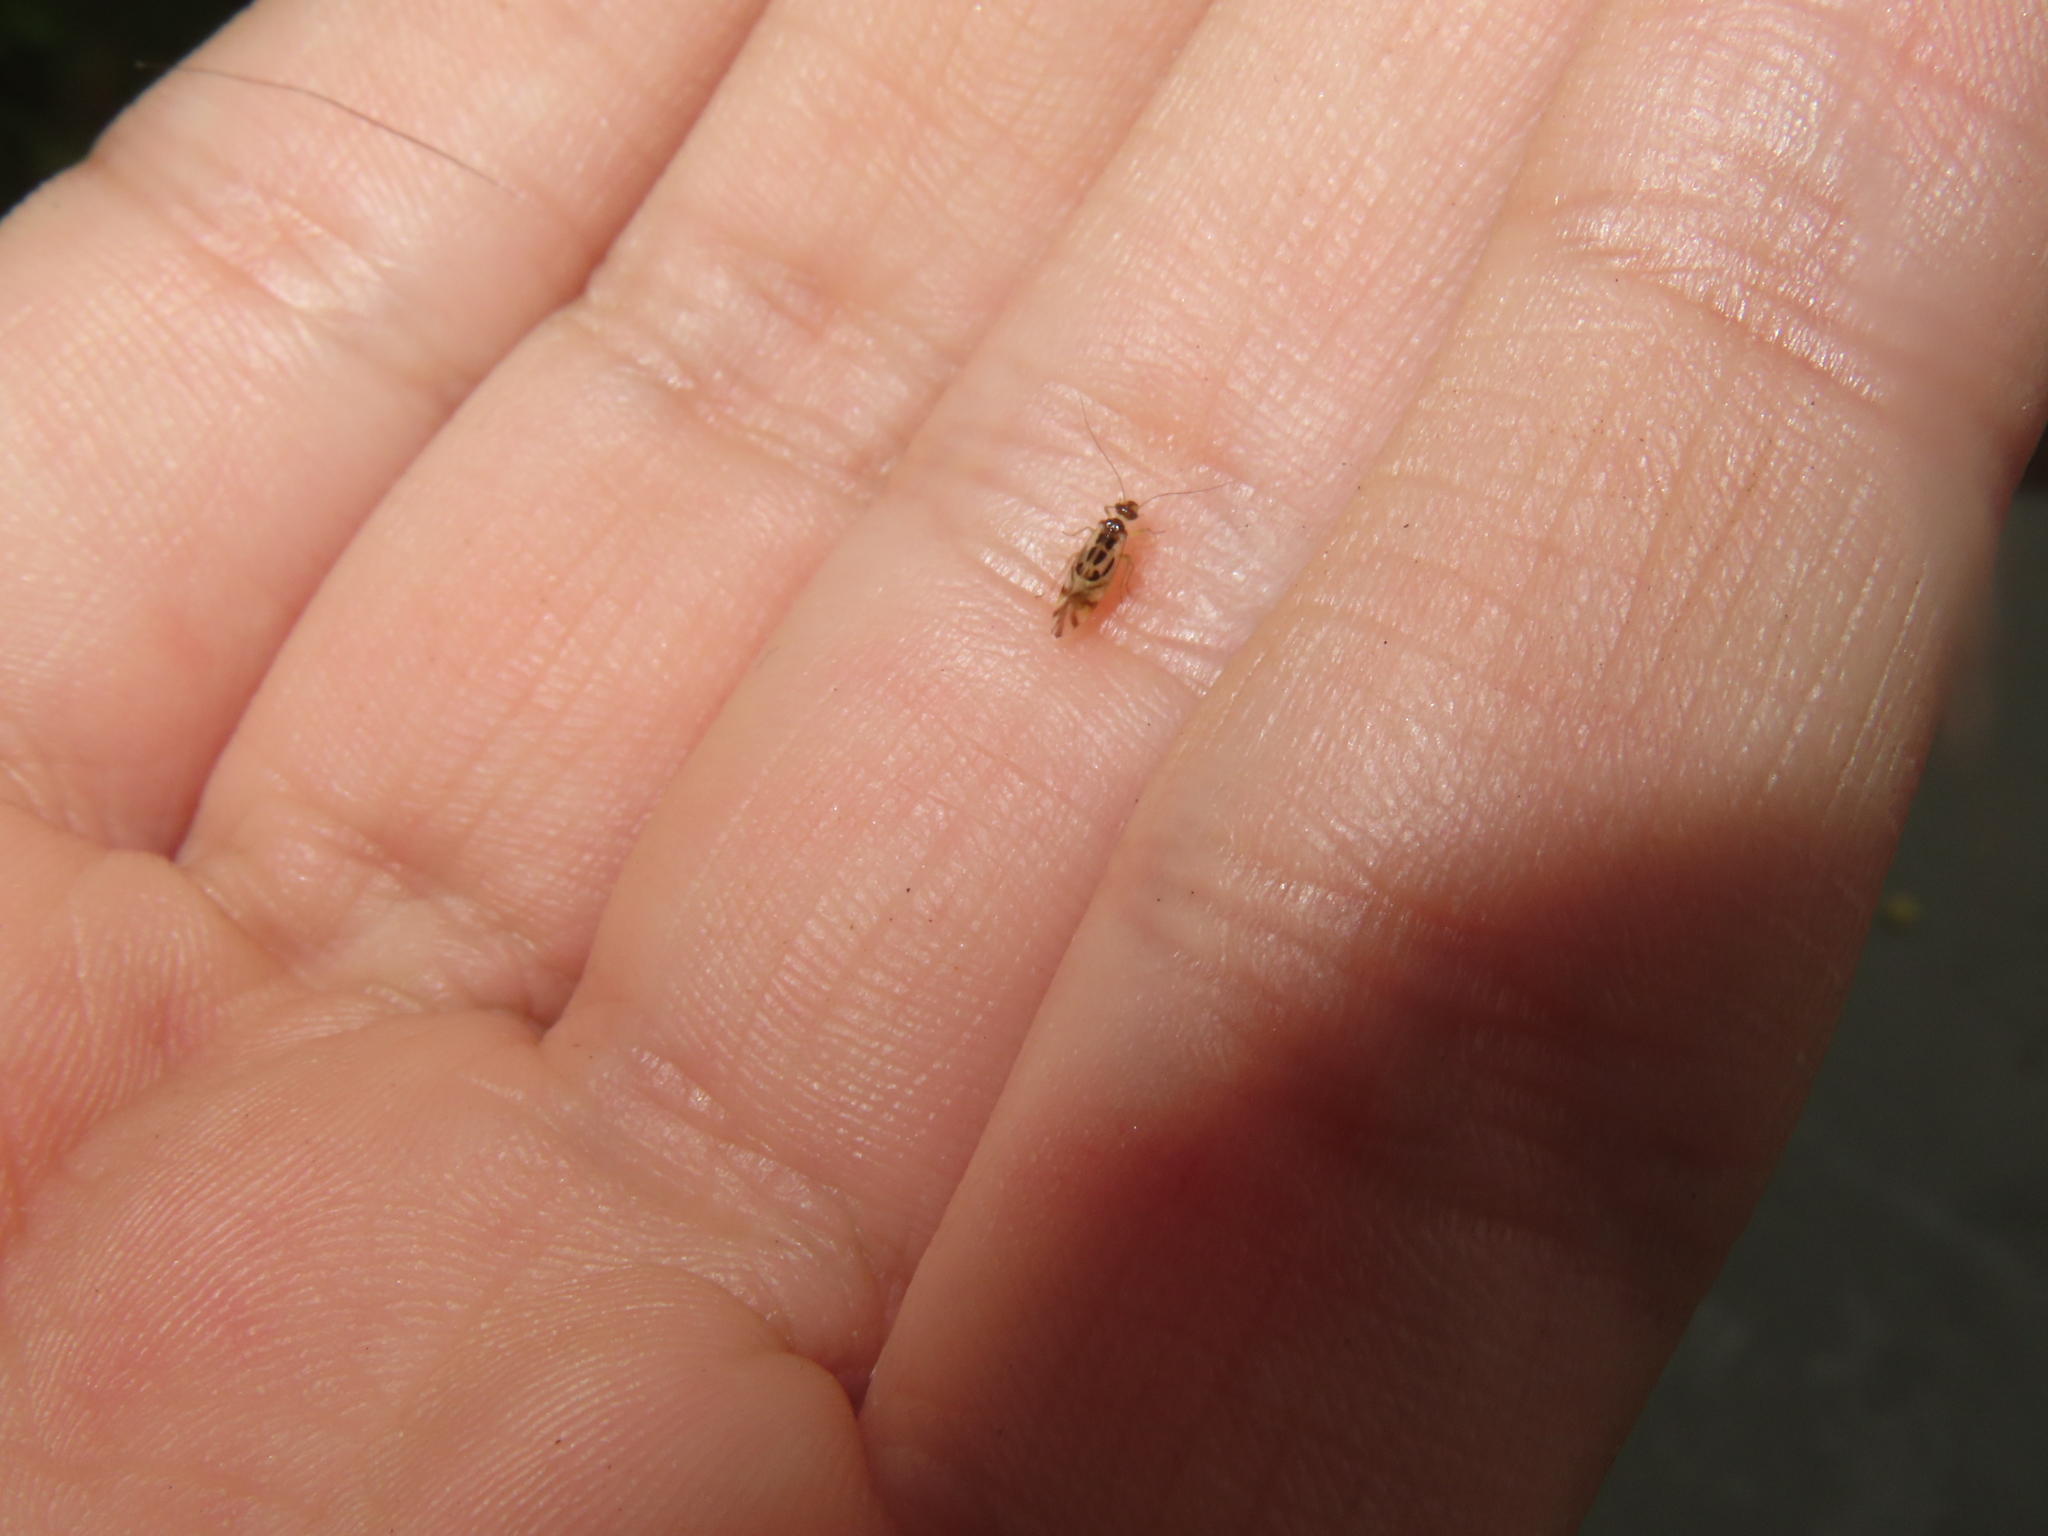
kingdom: Animalia
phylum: Arthropoda
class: Insecta
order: Psocodea
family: Stenopsocidae
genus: Graphopsocus
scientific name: Graphopsocus cruciatus
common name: Lizard bark louse
